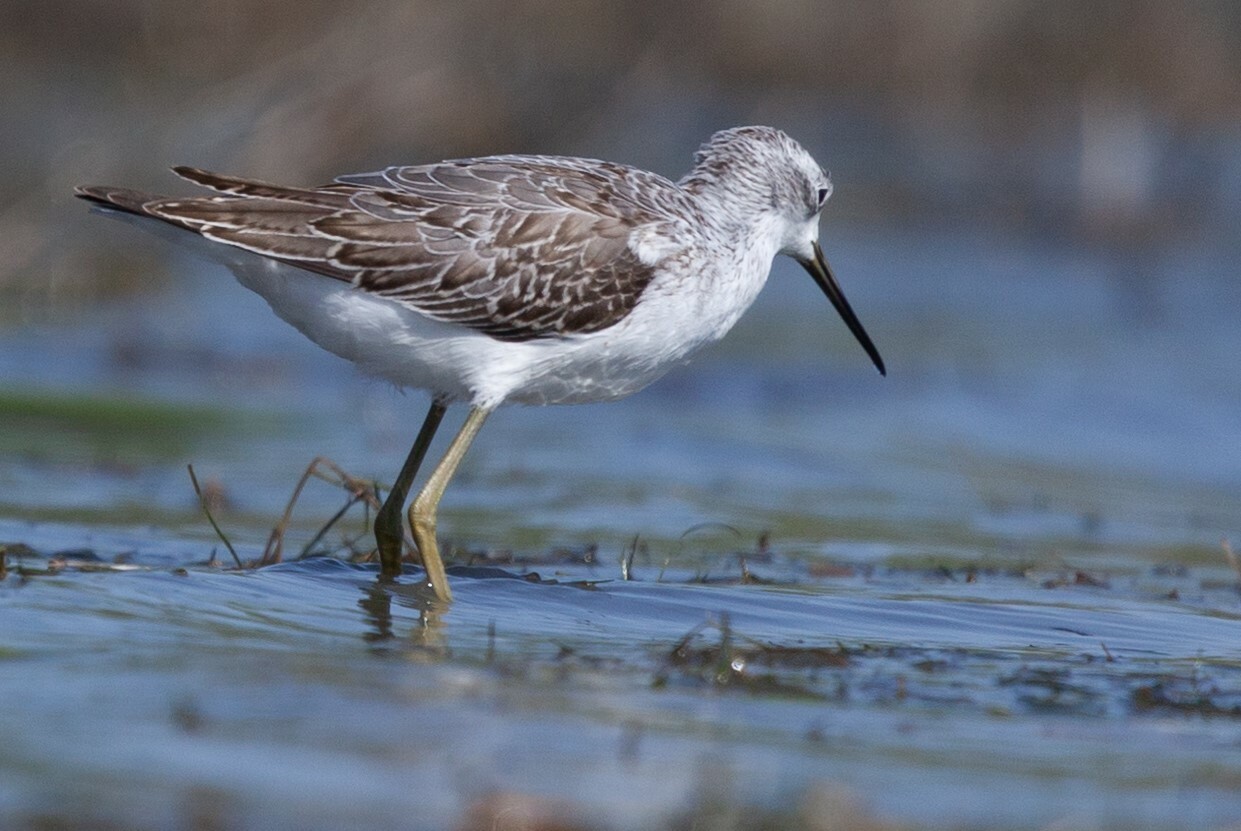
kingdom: Animalia
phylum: Chordata
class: Aves
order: Charadriiformes
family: Scolopacidae
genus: Tringa
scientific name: Tringa nebularia
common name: Common greenshank
